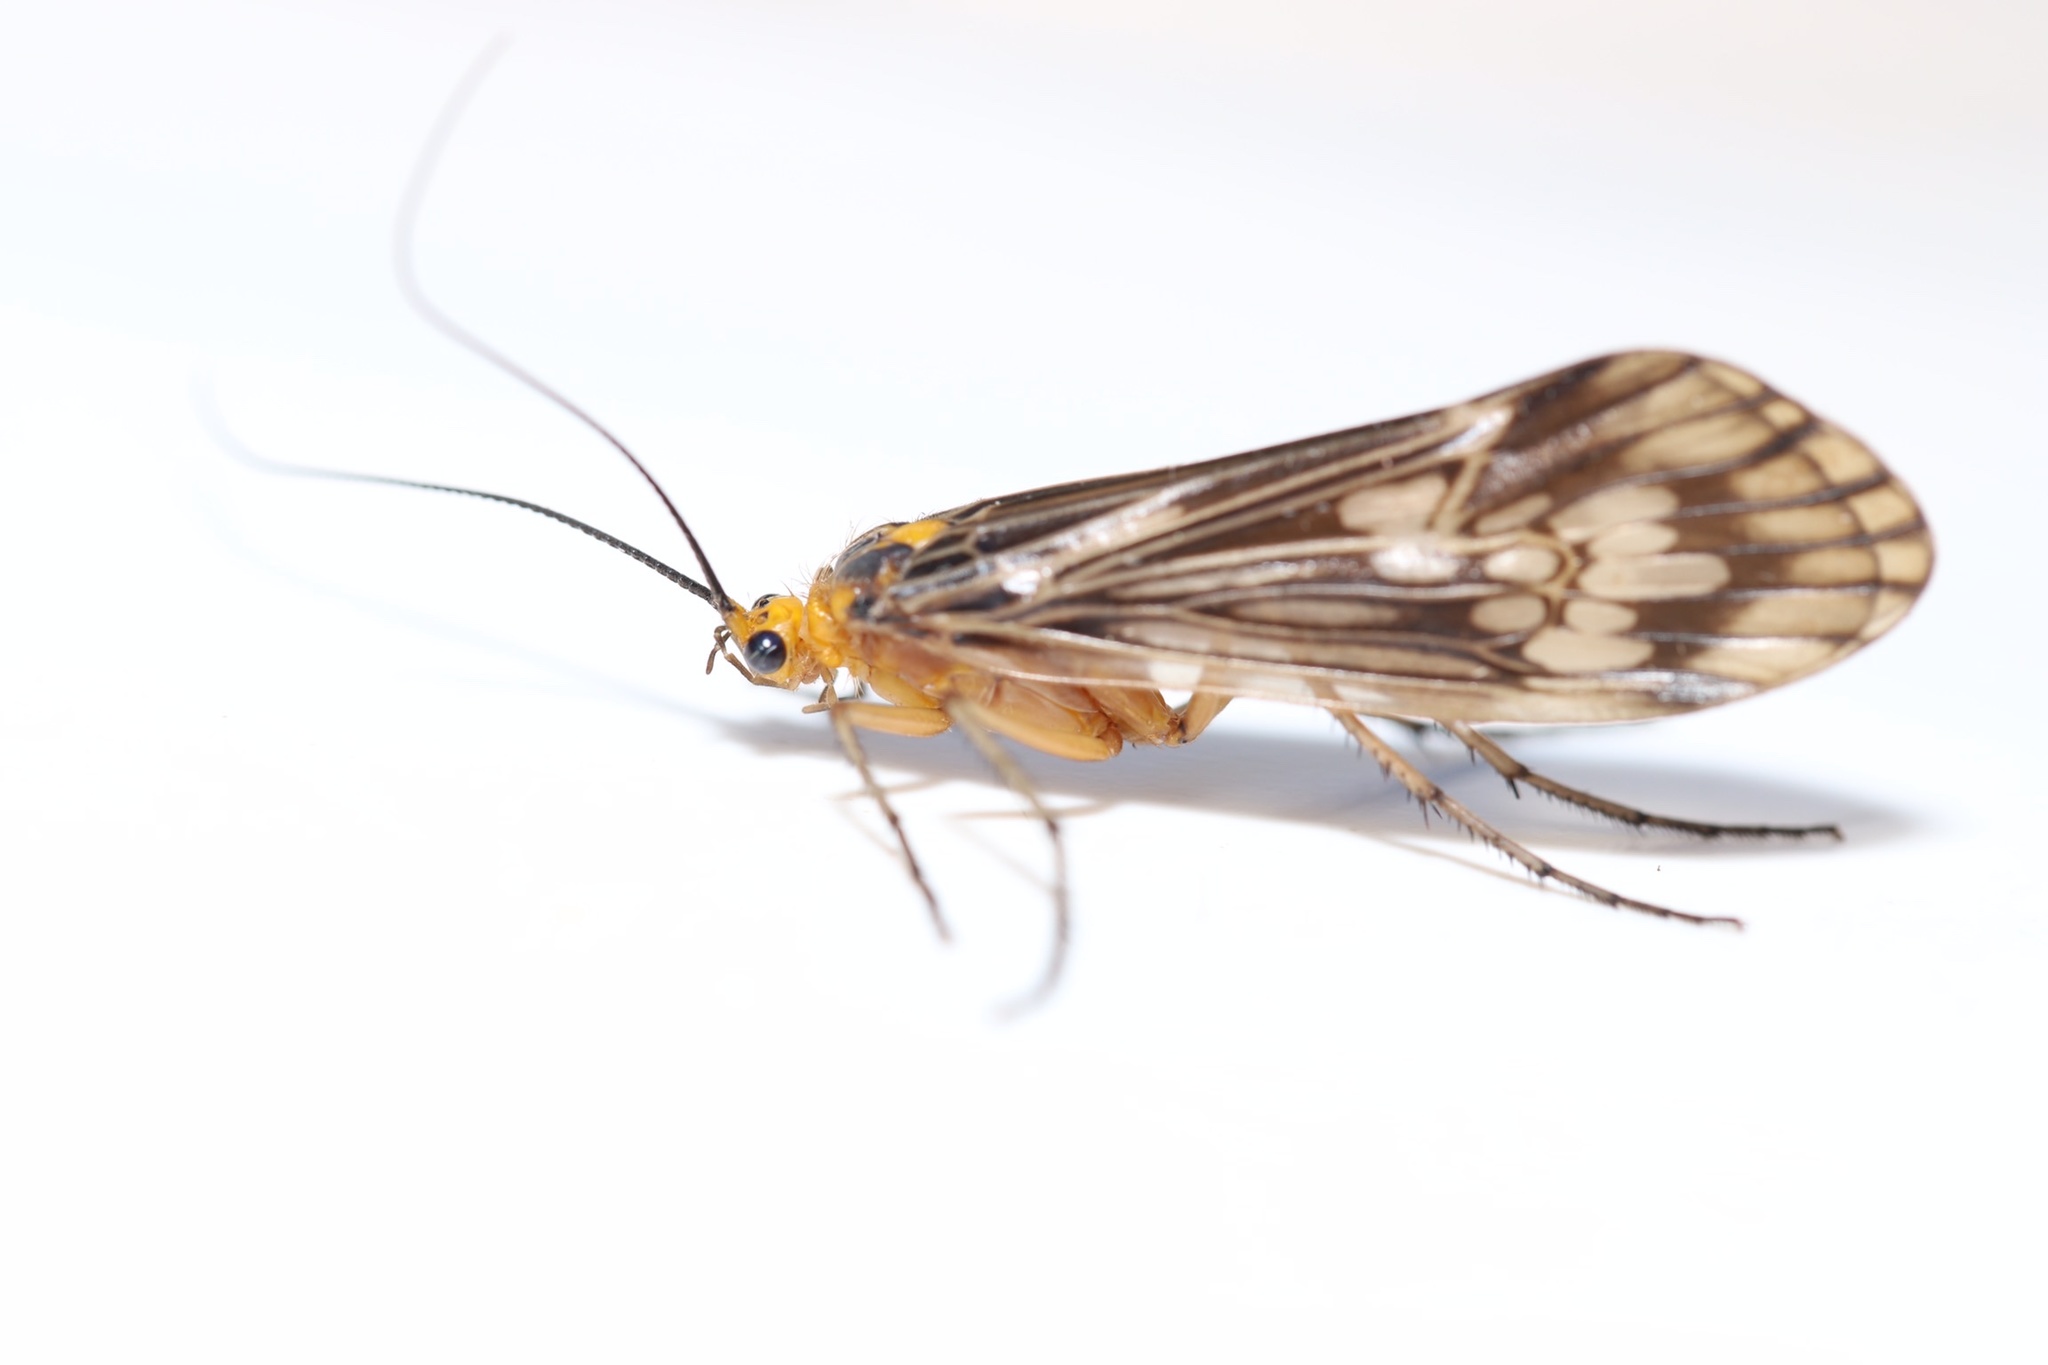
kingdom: Animalia
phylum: Arthropoda
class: Insecta
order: Trichoptera
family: Limnephilidae
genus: Hydatophylax
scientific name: Hydatophylax argus
